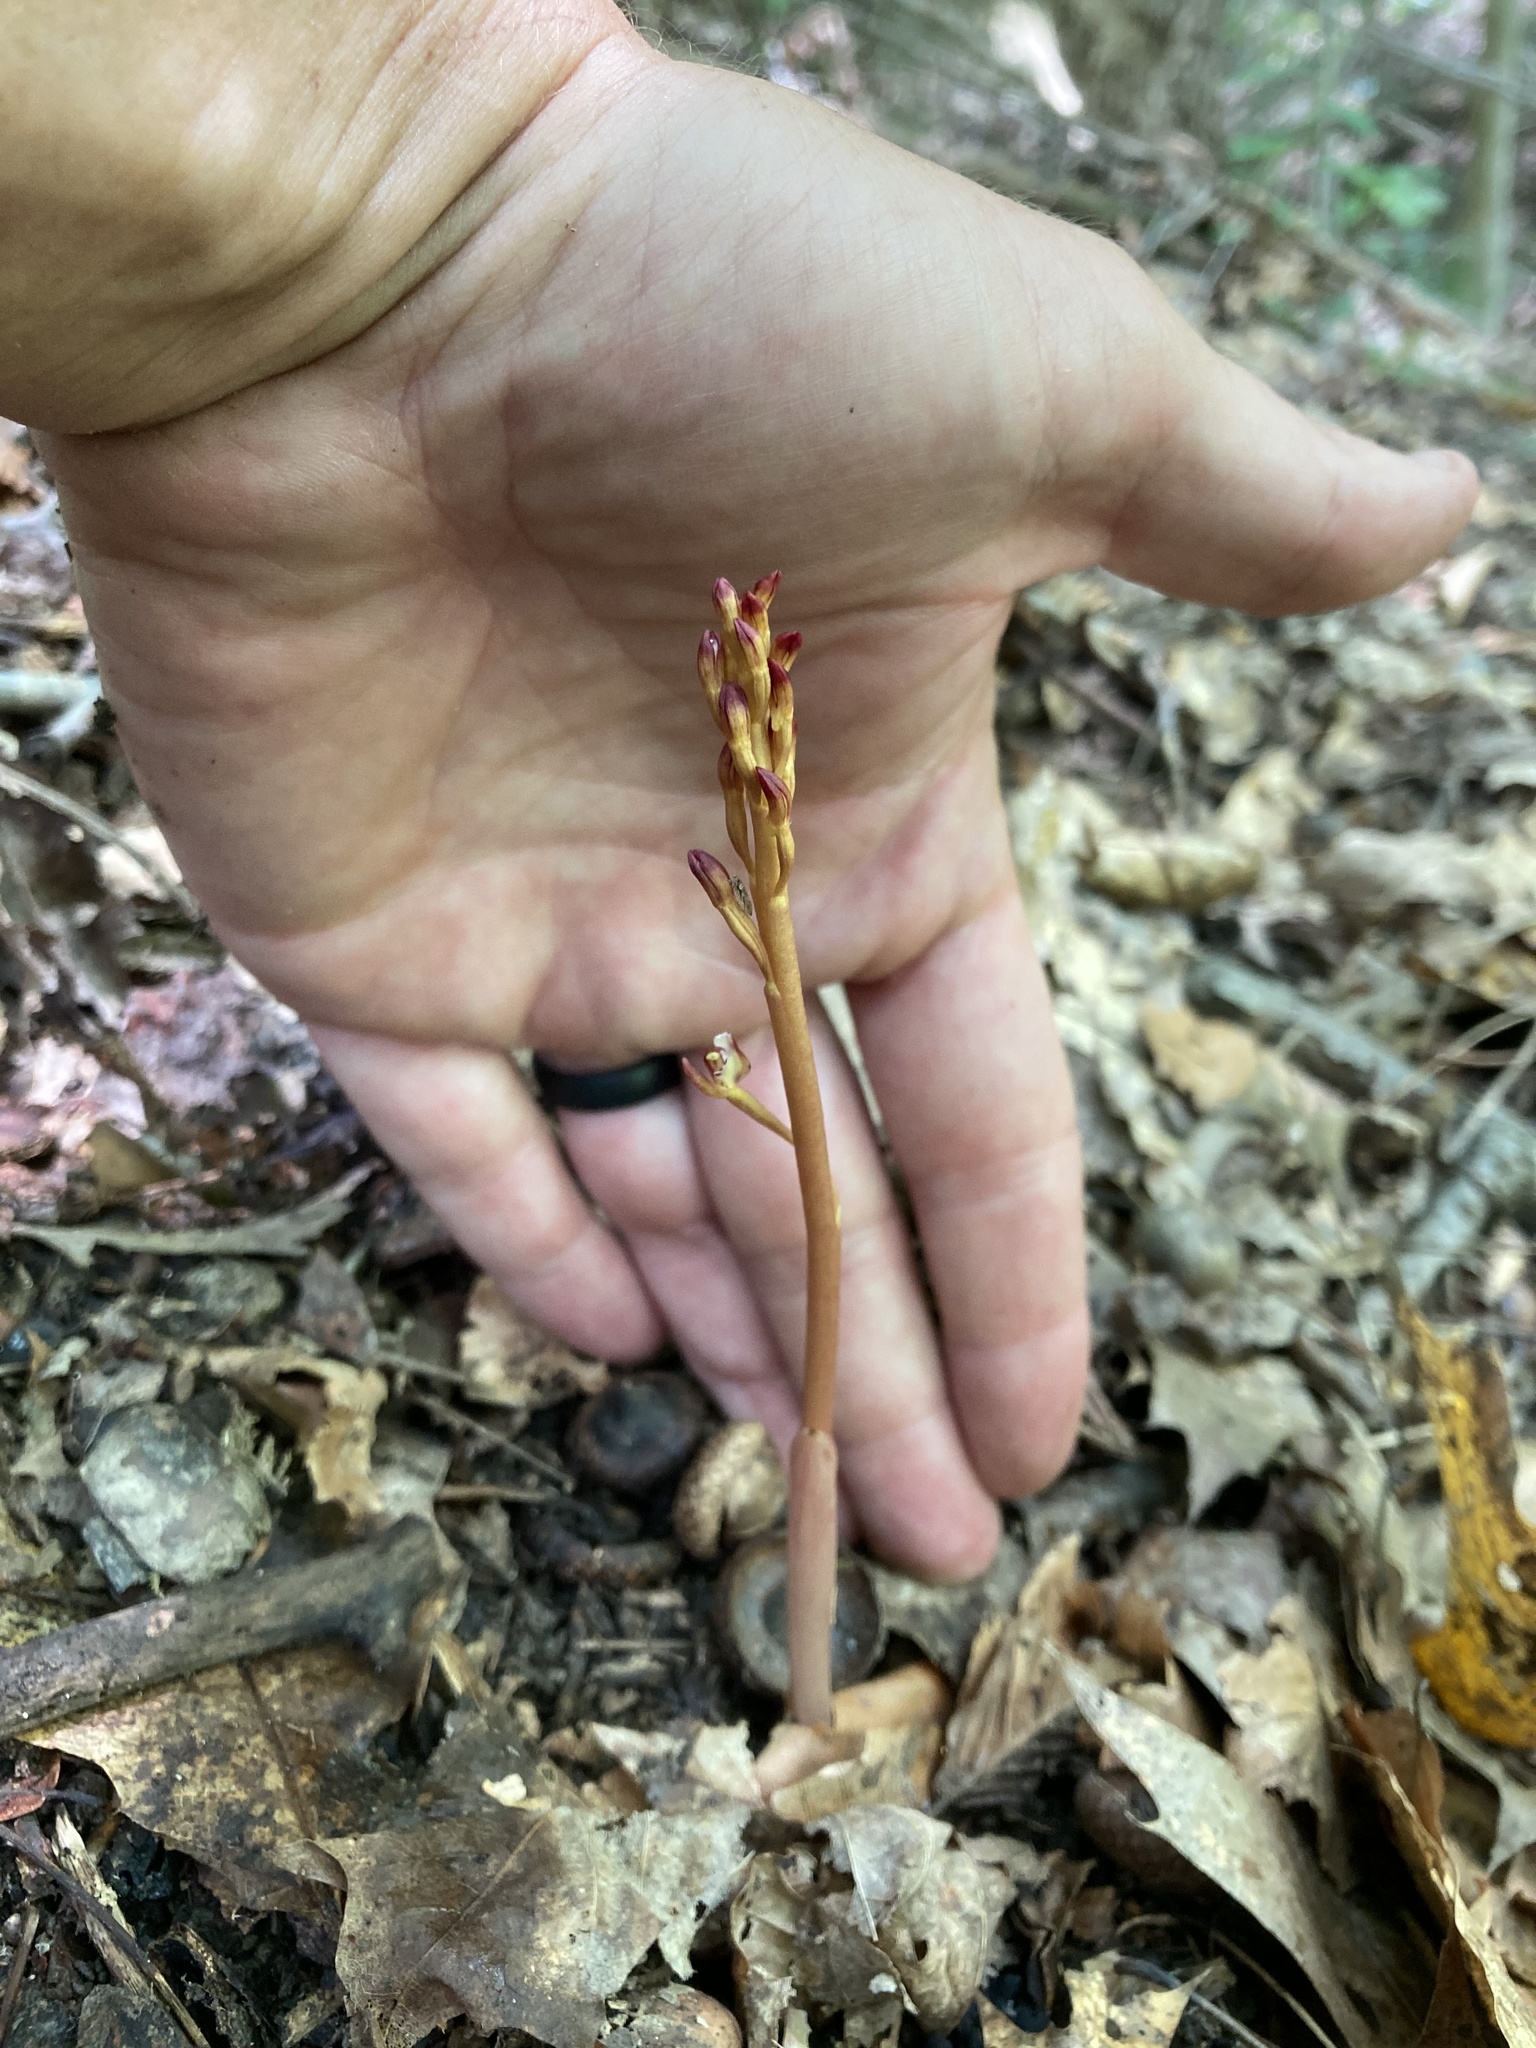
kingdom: Plantae
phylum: Tracheophyta
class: Liliopsida
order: Asparagales
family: Orchidaceae
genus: Corallorhiza
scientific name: Corallorhiza maculata
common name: Spotted coralroot
